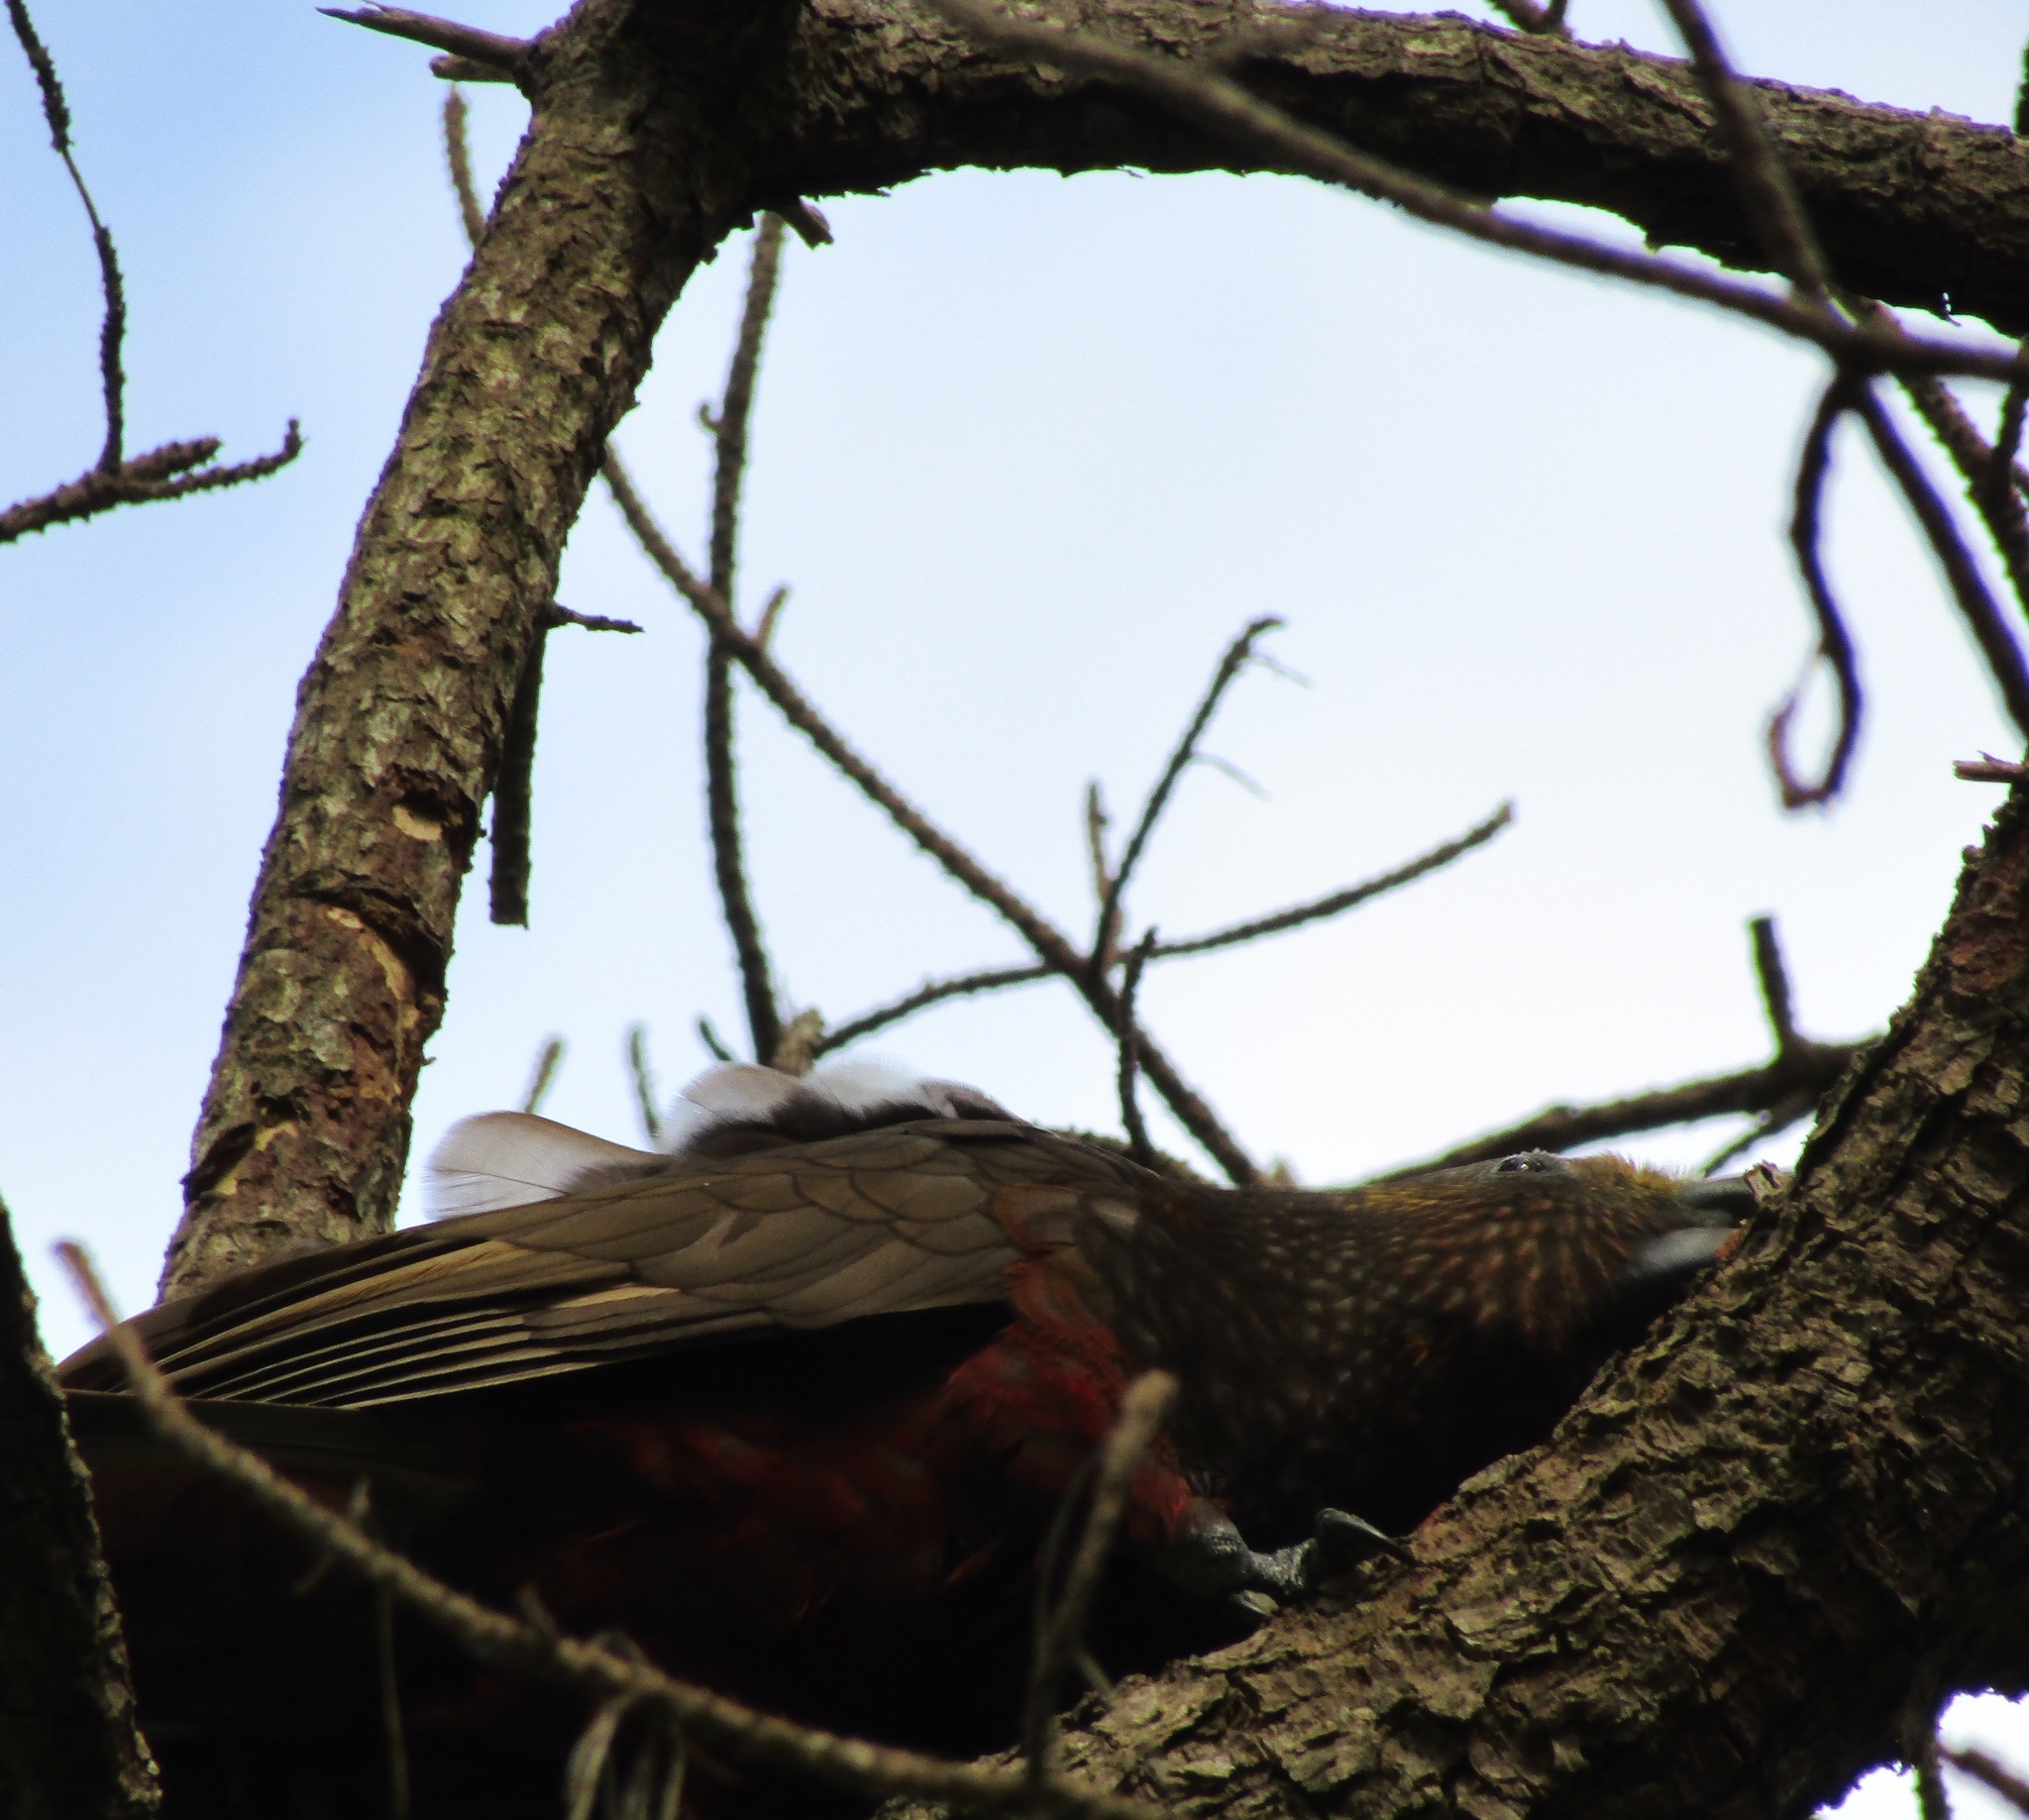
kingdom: Animalia
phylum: Chordata
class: Aves
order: Psittaciformes
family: Psittacidae
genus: Nestor
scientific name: Nestor meridionalis
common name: New zealand kaka
